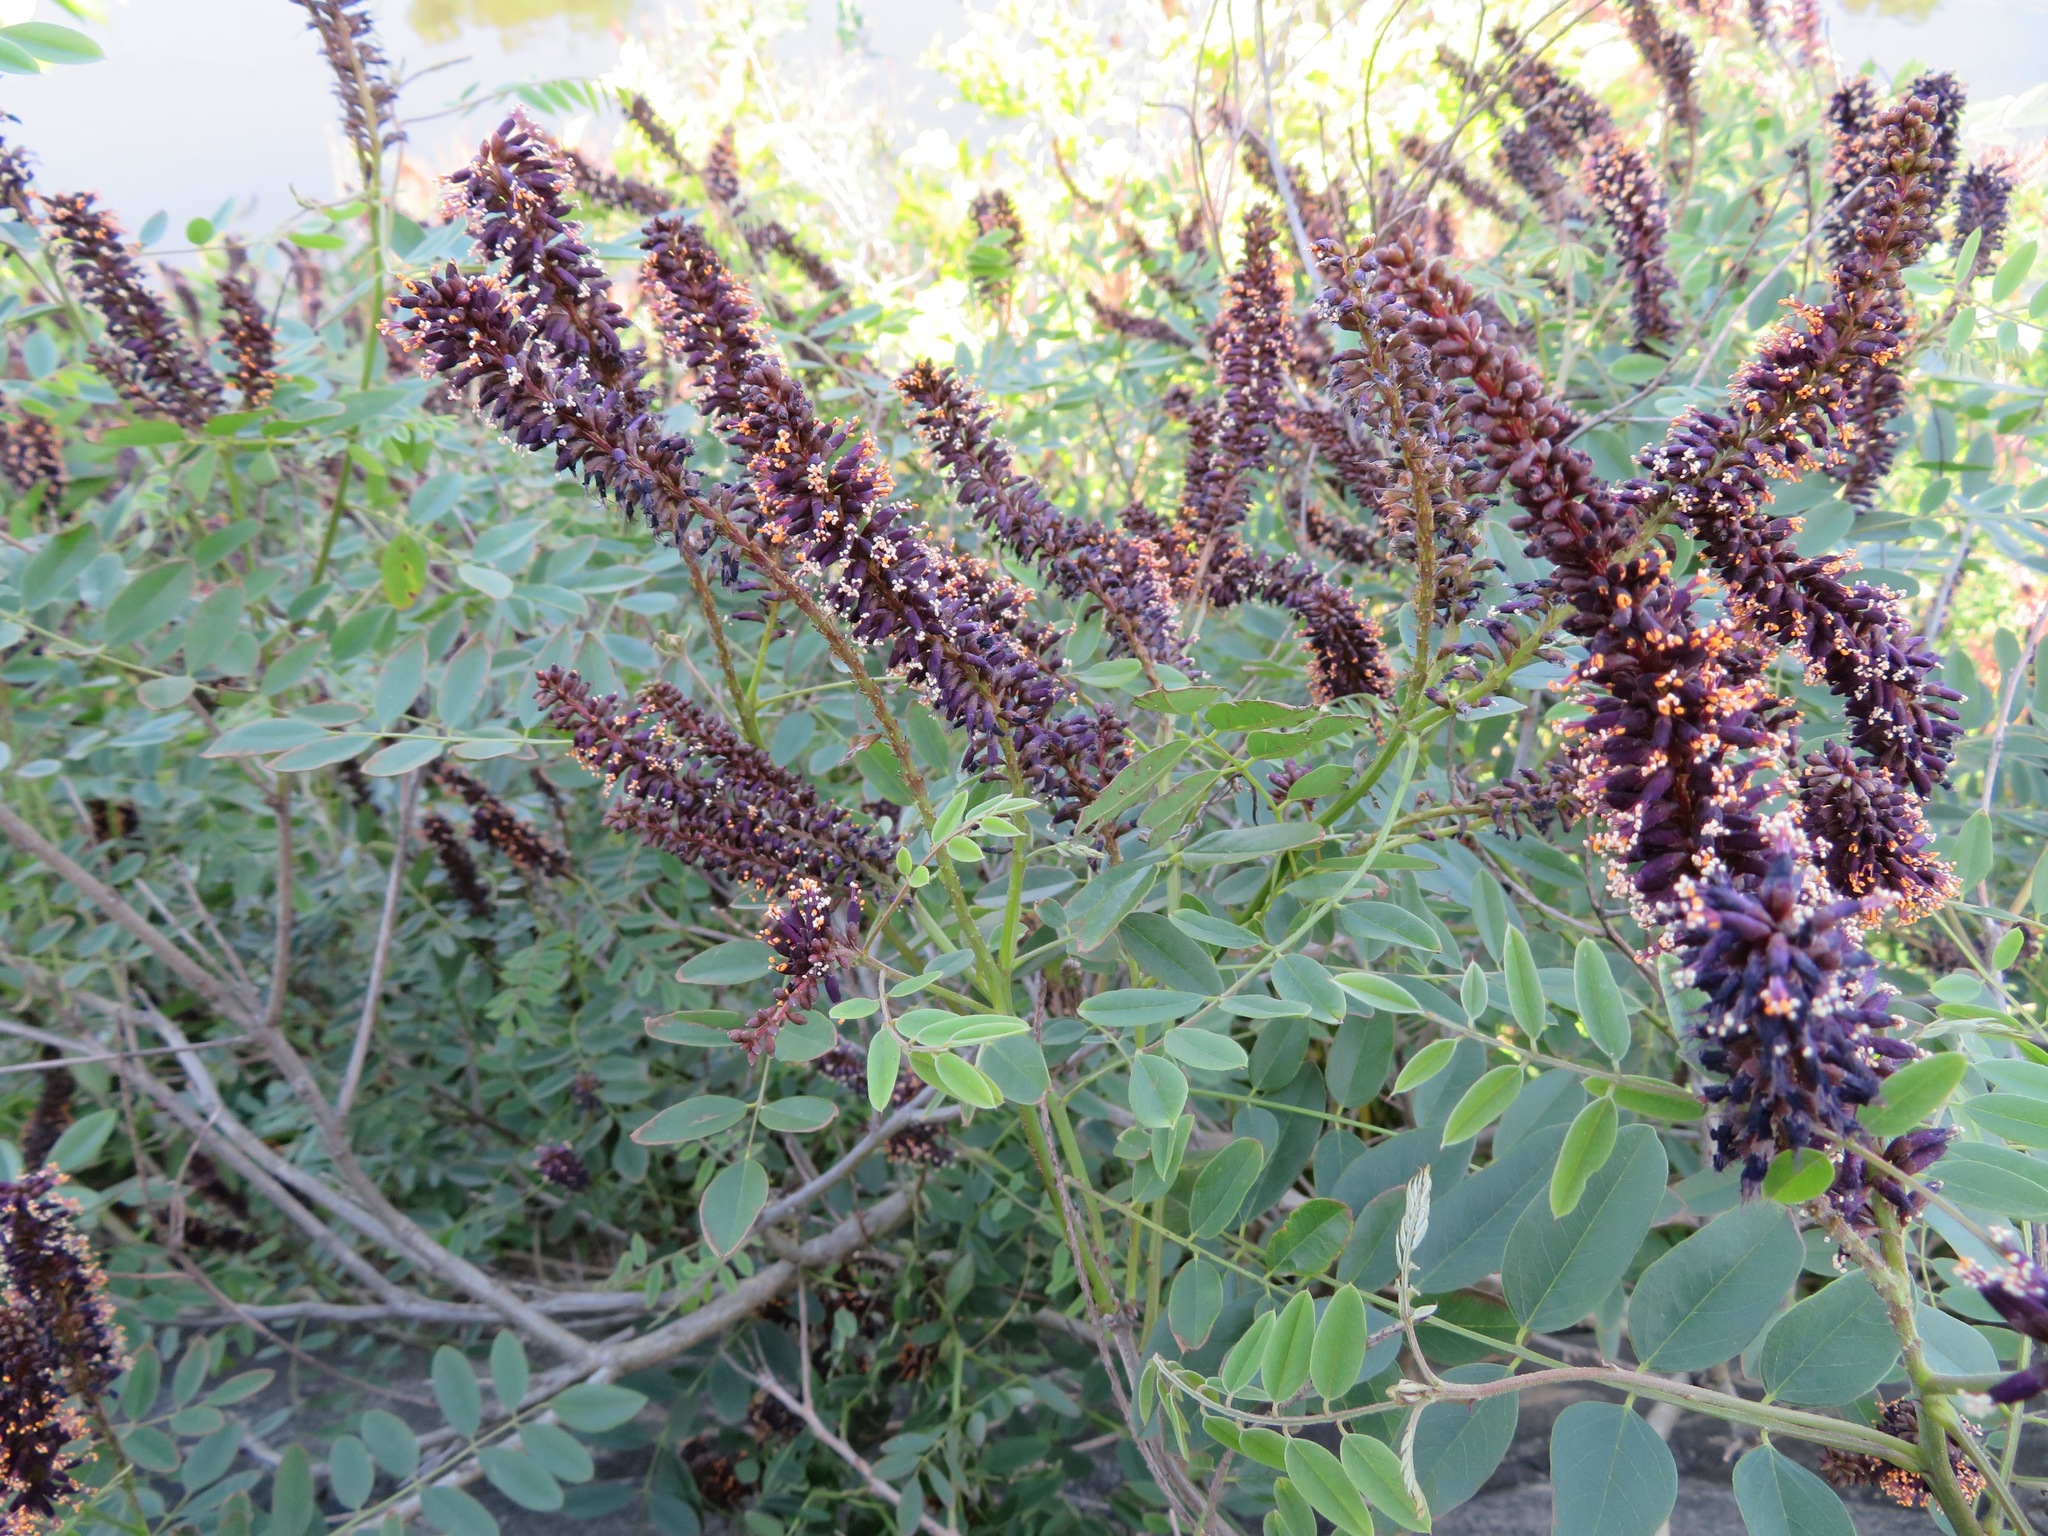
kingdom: Plantae
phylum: Tracheophyta
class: Magnoliopsida
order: Fabales
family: Fabaceae
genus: Amorpha
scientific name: Amorpha fruticosa
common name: False indigo
